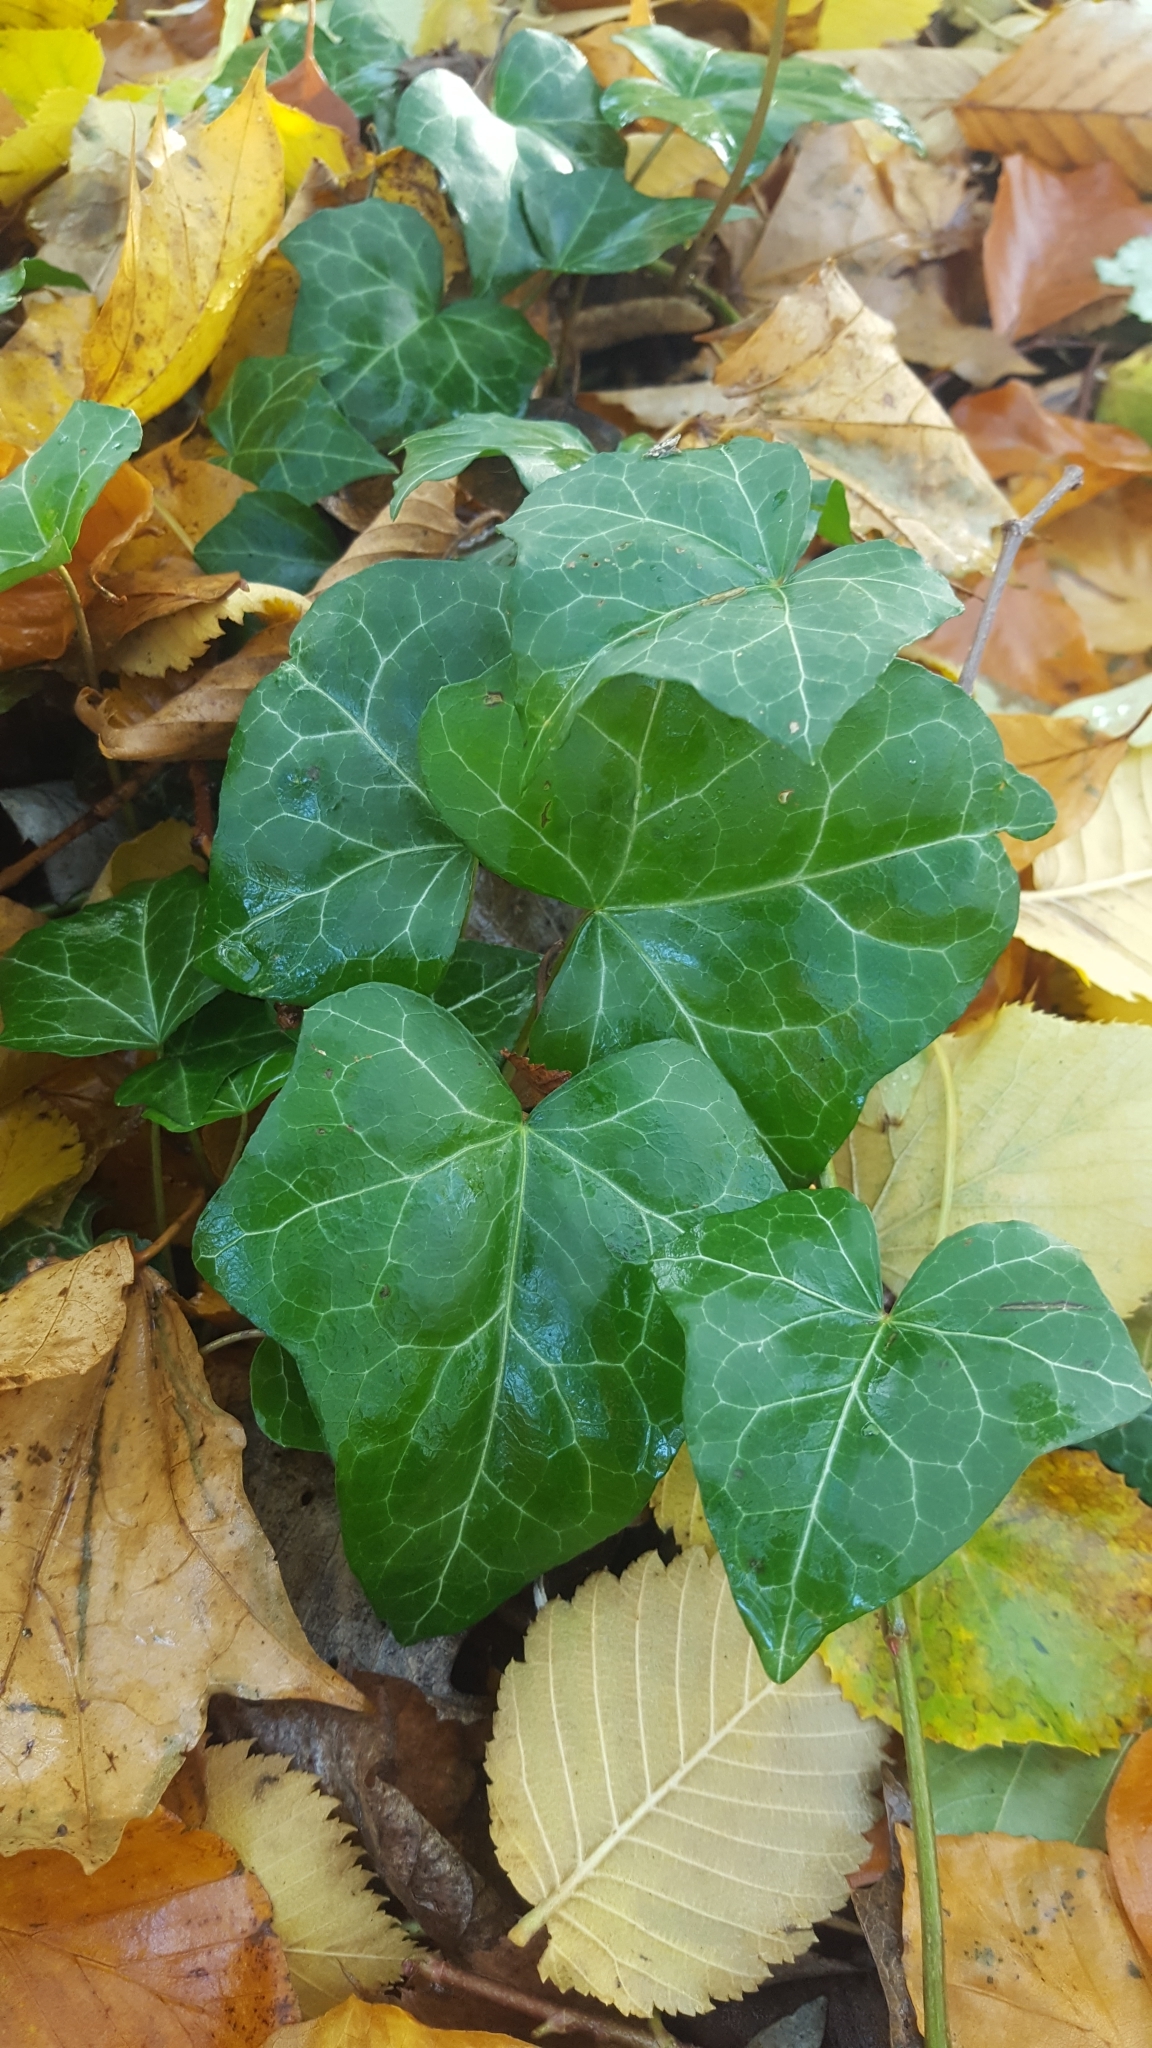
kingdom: Plantae
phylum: Tracheophyta
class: Magnoliopsida
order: Apiales
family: Araliaceae
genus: Hedera
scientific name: Hedera helix
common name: Ivy
